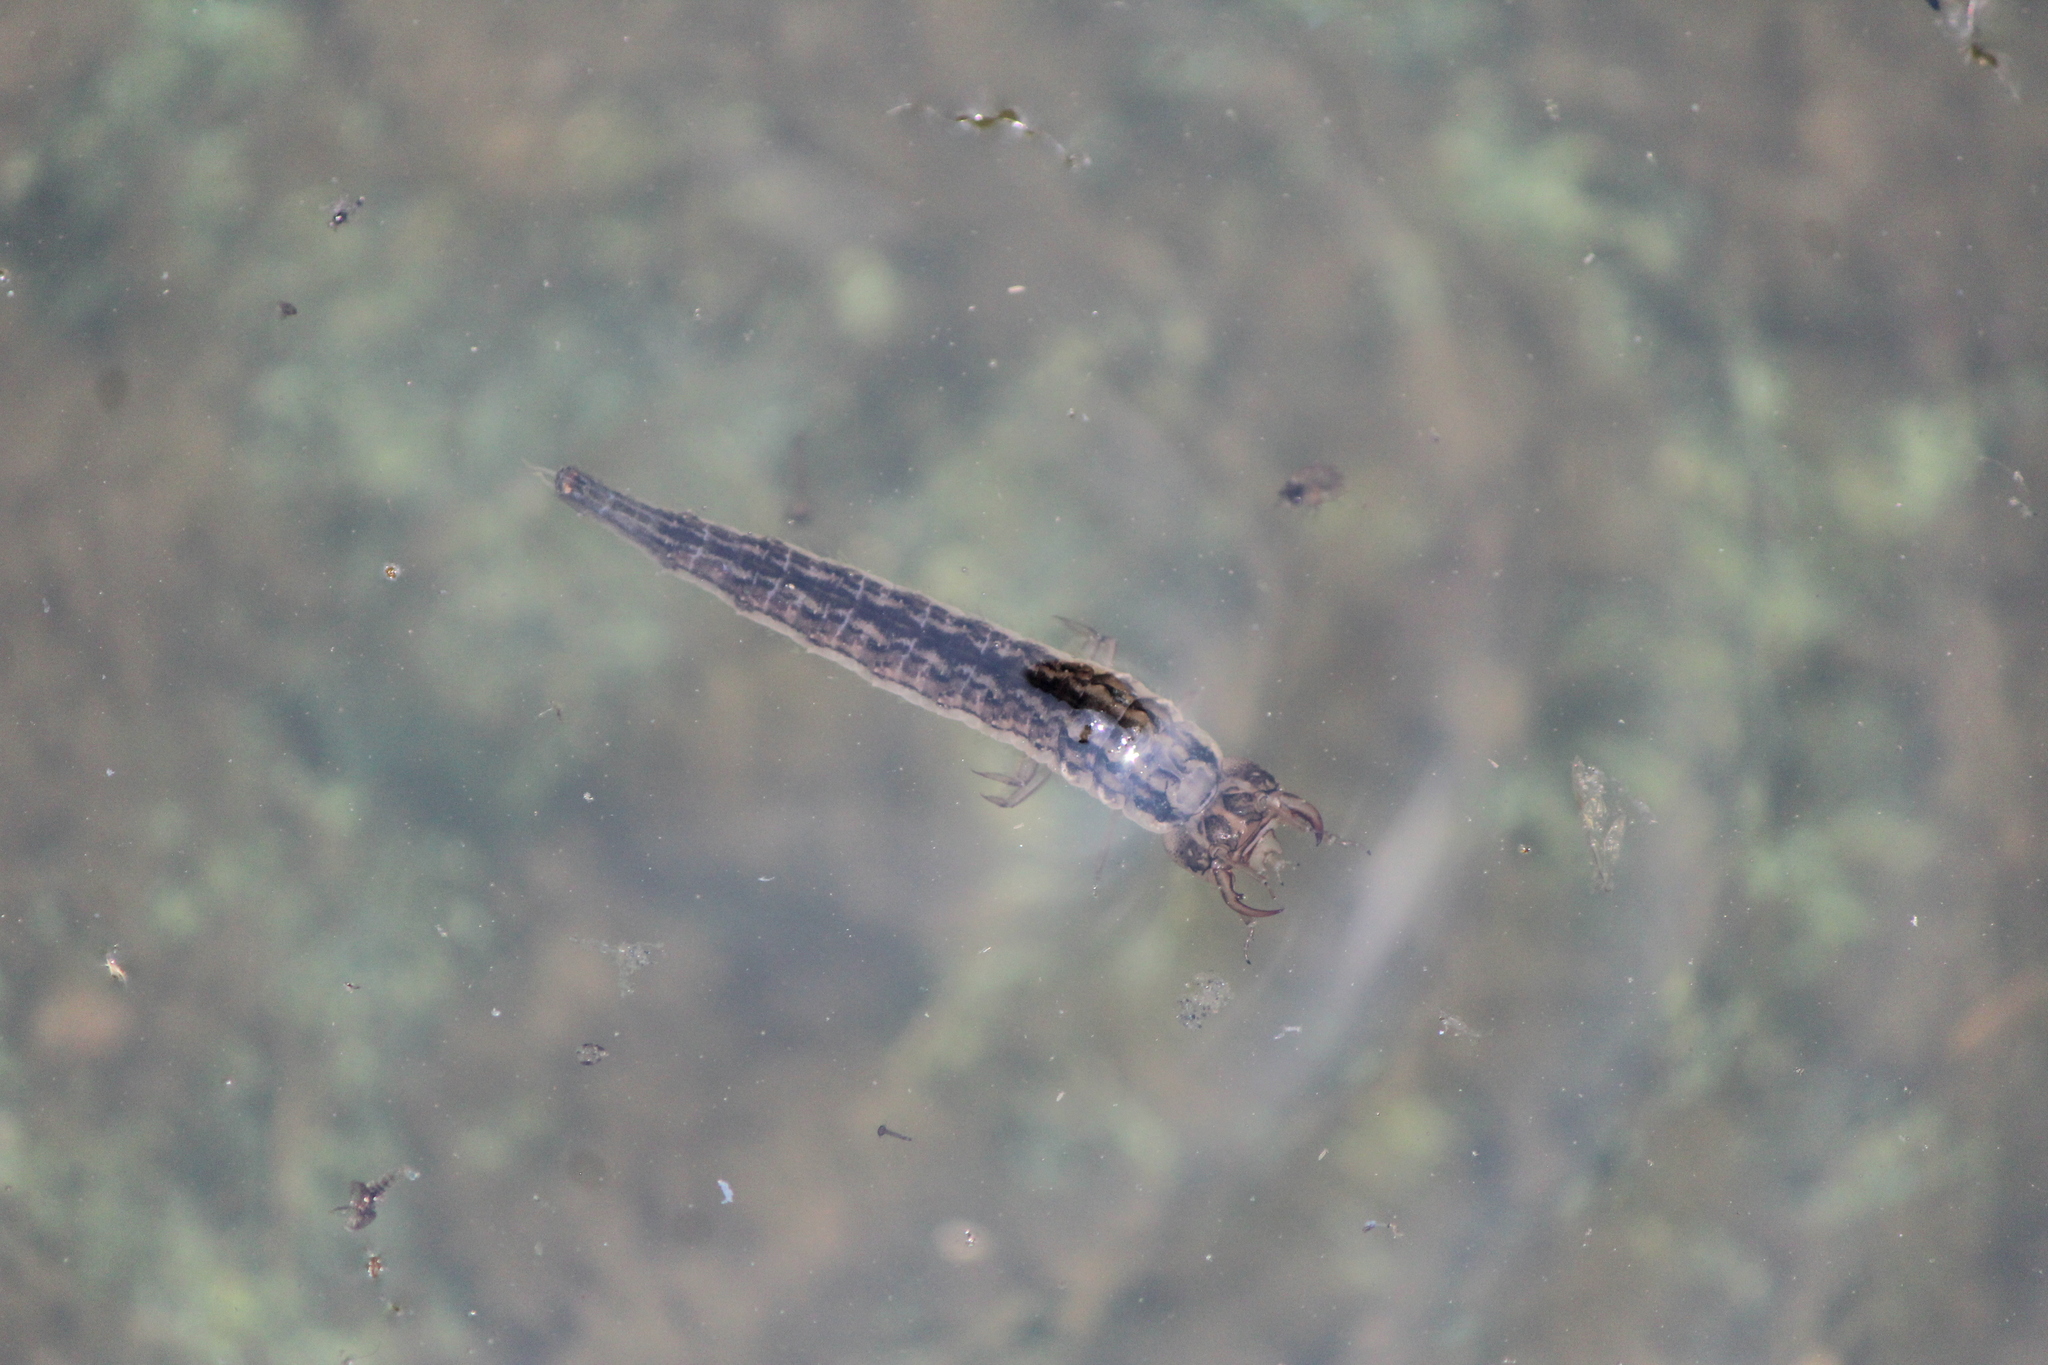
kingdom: Animalia
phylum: Arthropoda
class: Insecta
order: Coleoptera
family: Hydrophilidae
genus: Hydrophilus
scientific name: Hydrophilus
